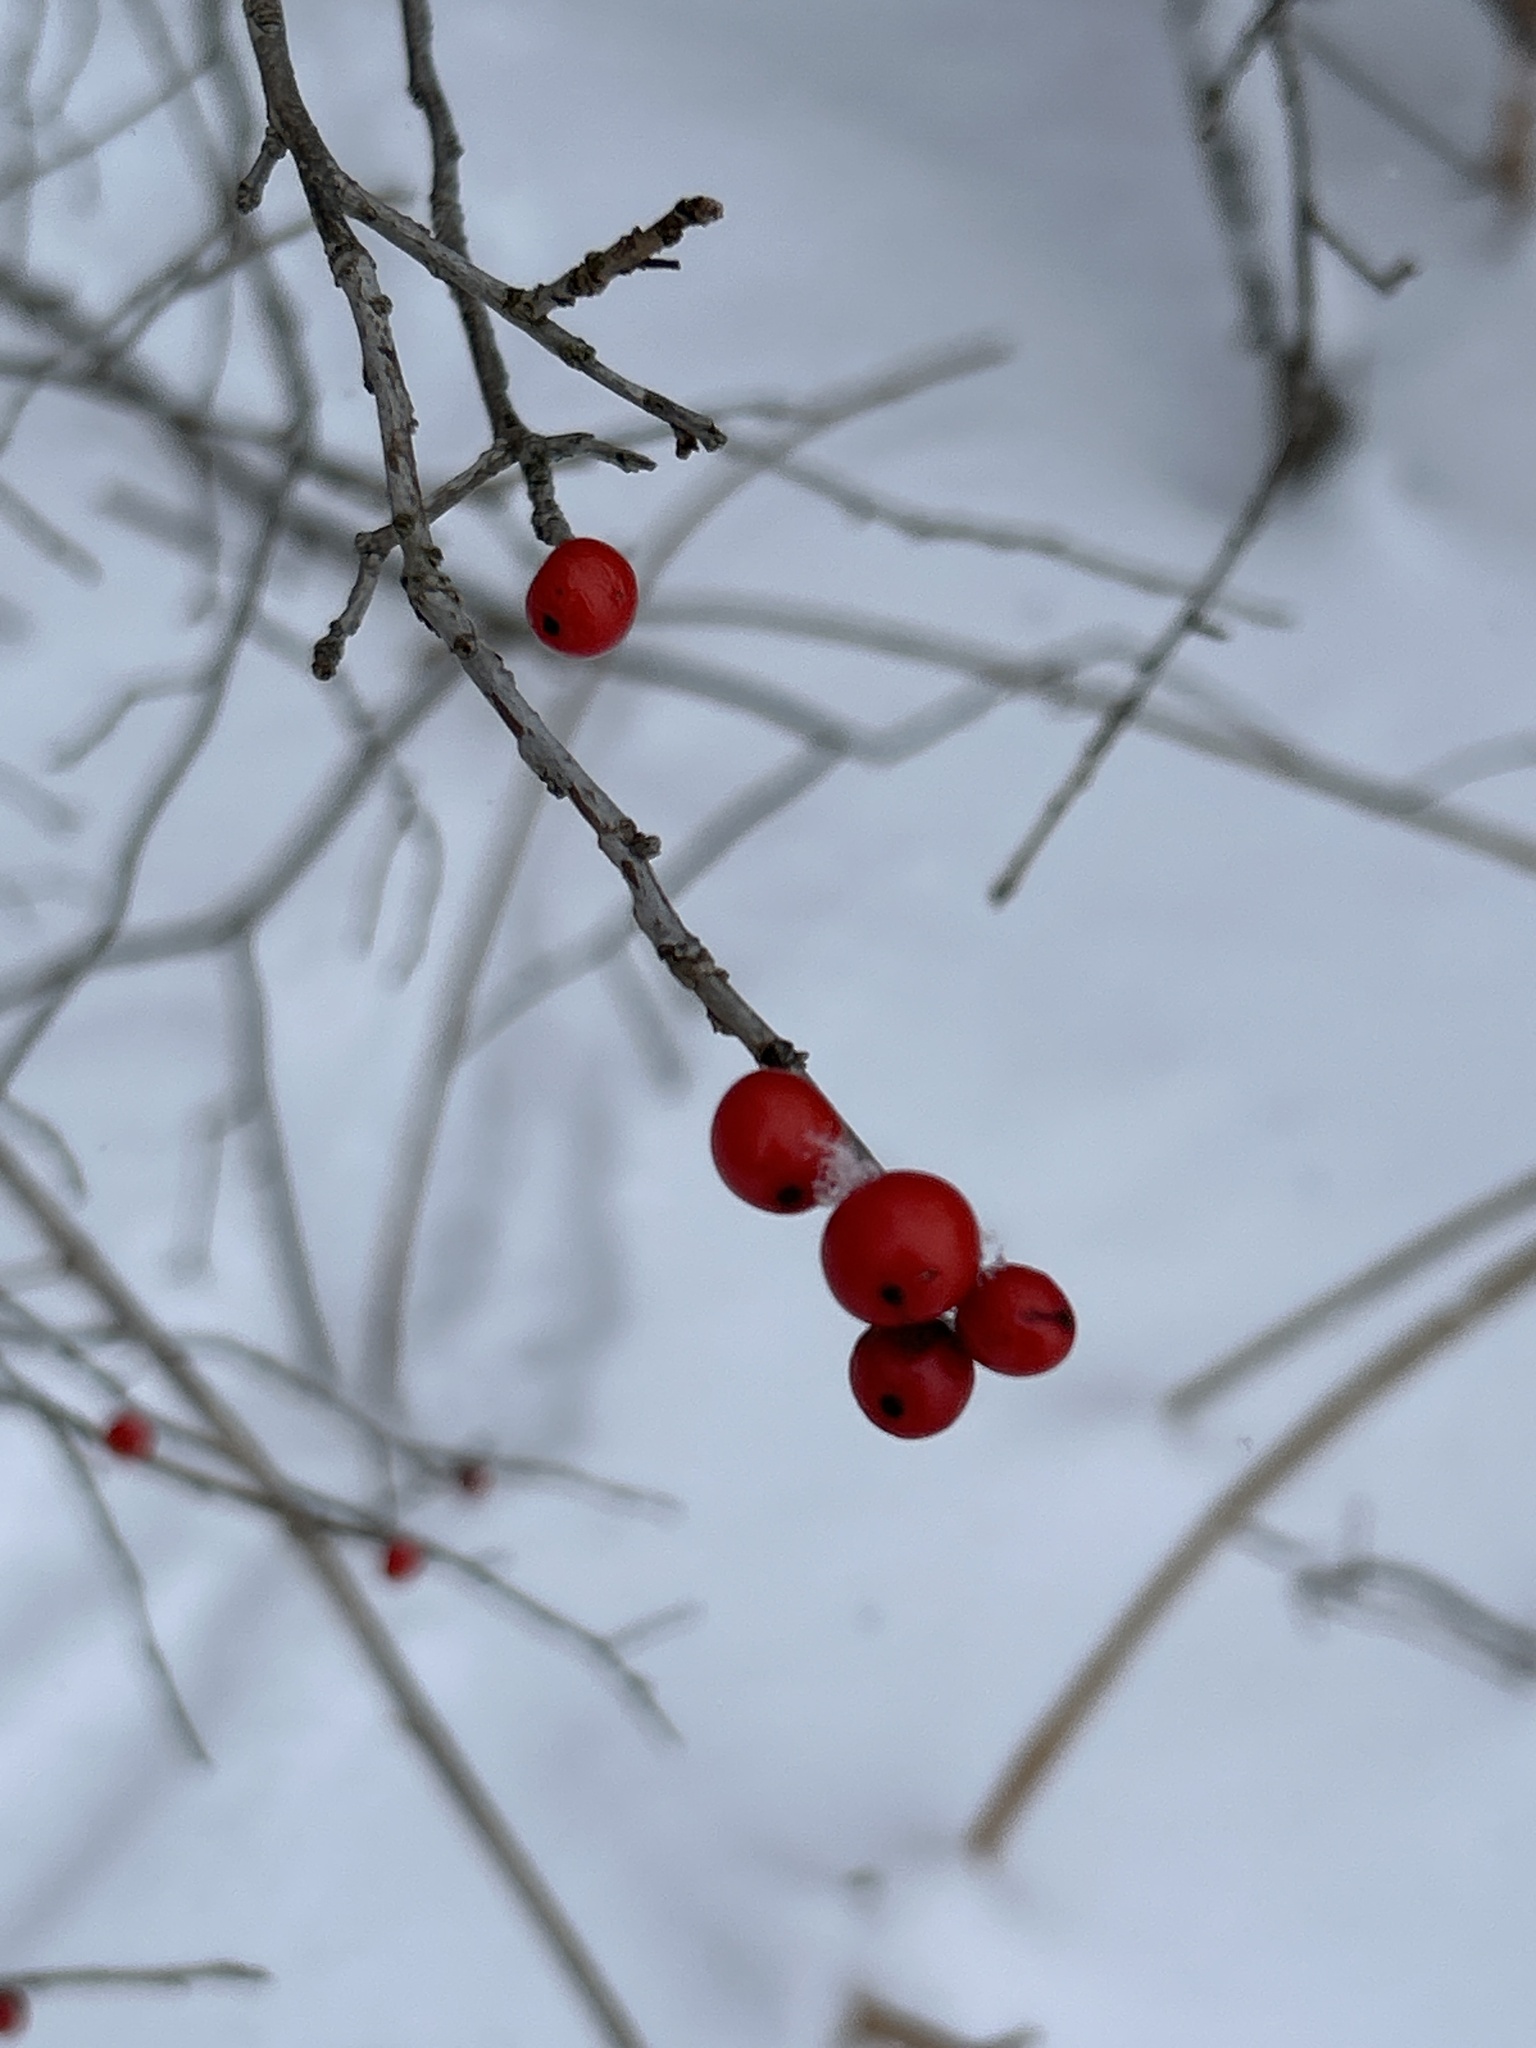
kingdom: Plantae
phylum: Tracheophyta
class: Magnoliopsida
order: Aquifoliales
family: Aquifoliaceae
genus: Ilex
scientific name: Ilex verticillata
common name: Virginia winterberry
